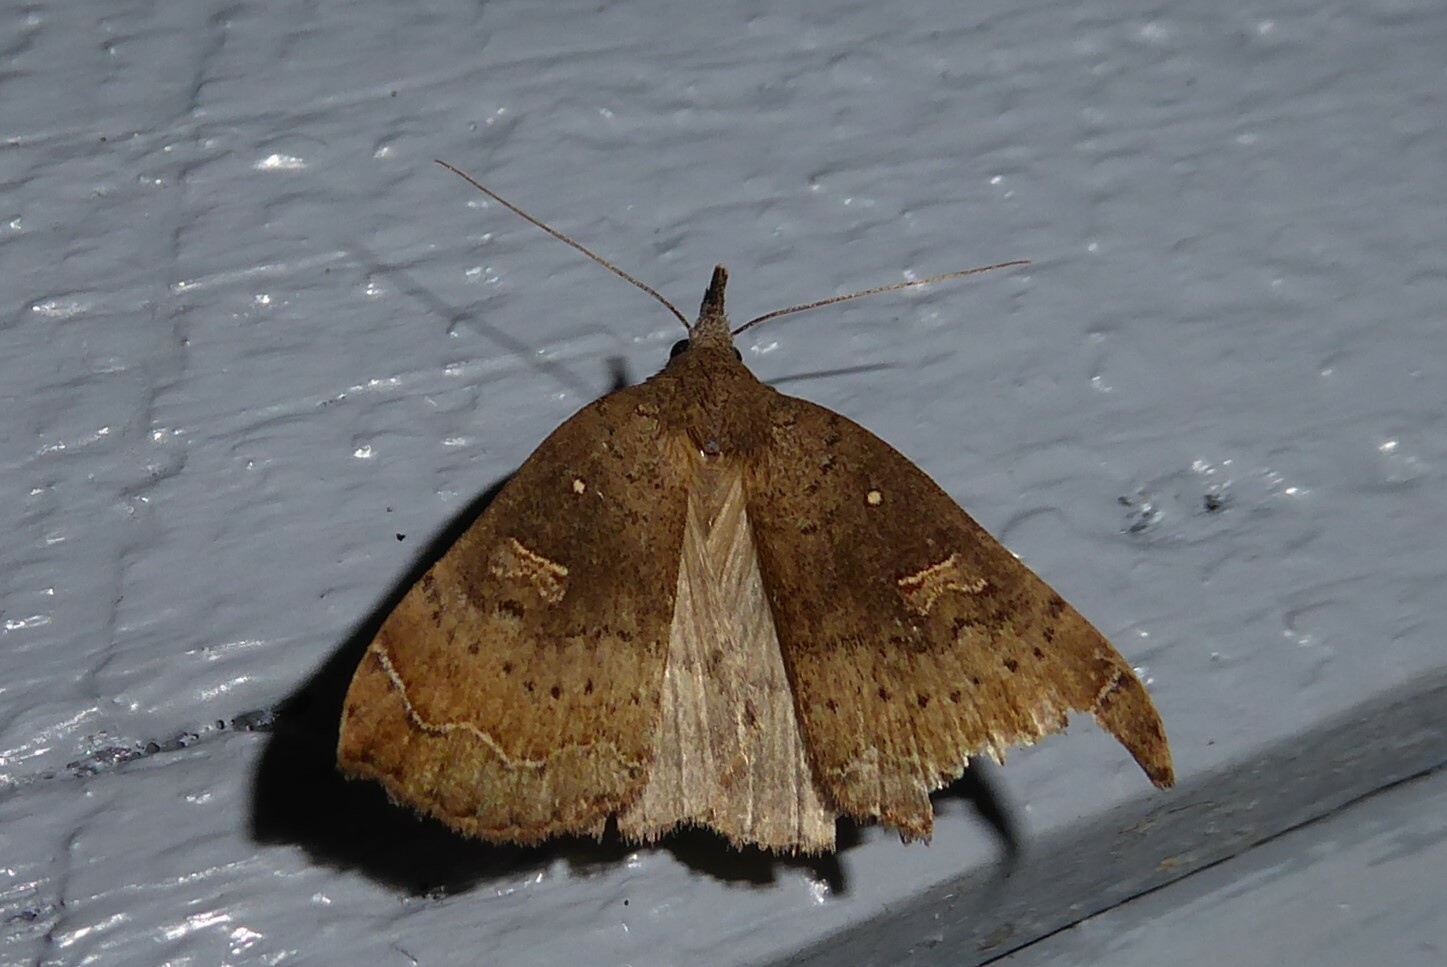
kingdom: Animalia
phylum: Arthropoda
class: Insecta
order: Lepidoptera
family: Erebidae
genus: Rhapsa
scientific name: Rhapsa scotosialis
